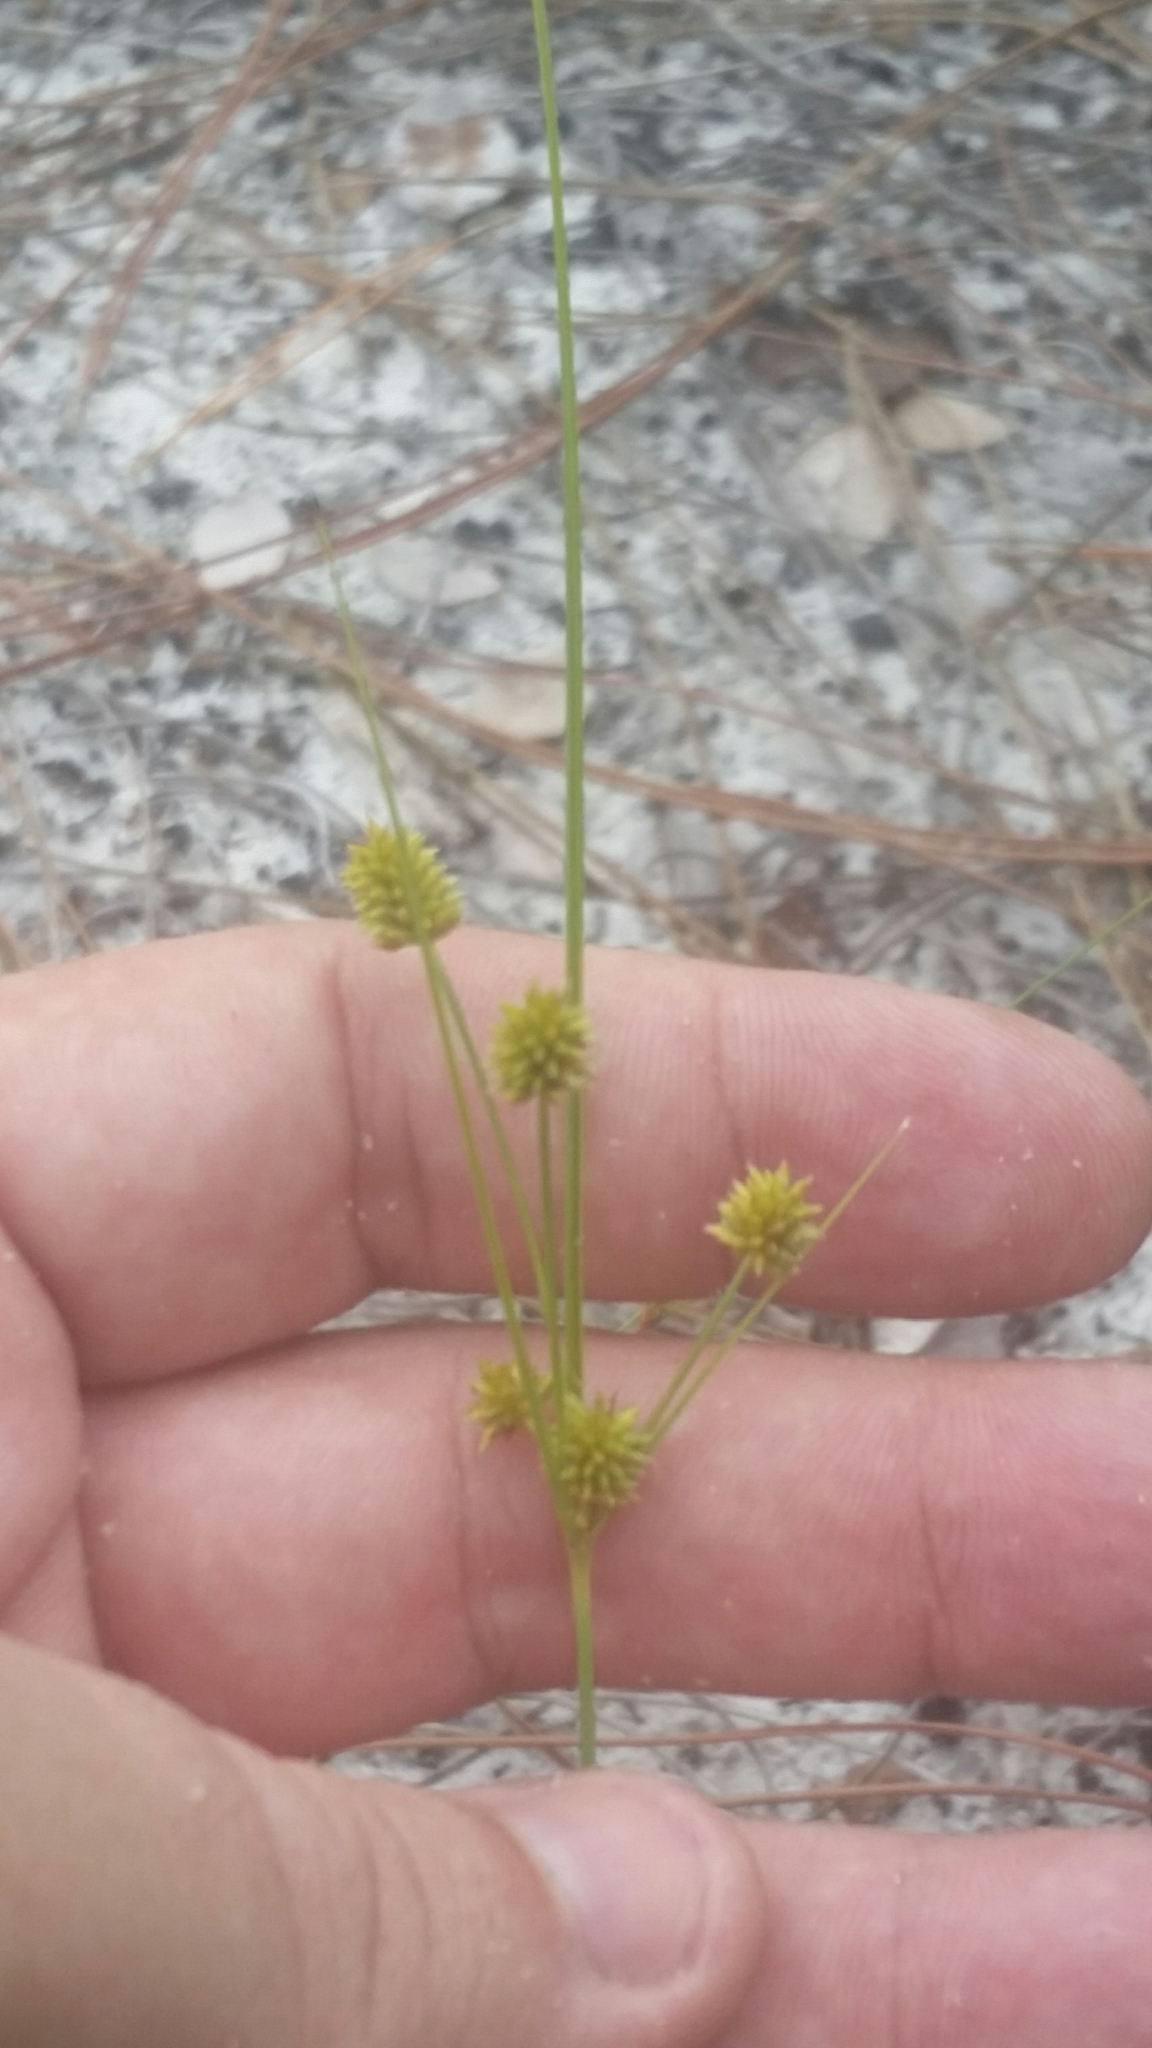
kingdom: Plantae
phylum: Tracheophyta
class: Liliopsida
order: Poales
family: Cyperaceae
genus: Cyperus
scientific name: Cyperus retrorsus
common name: Pinebarren flat sedge
